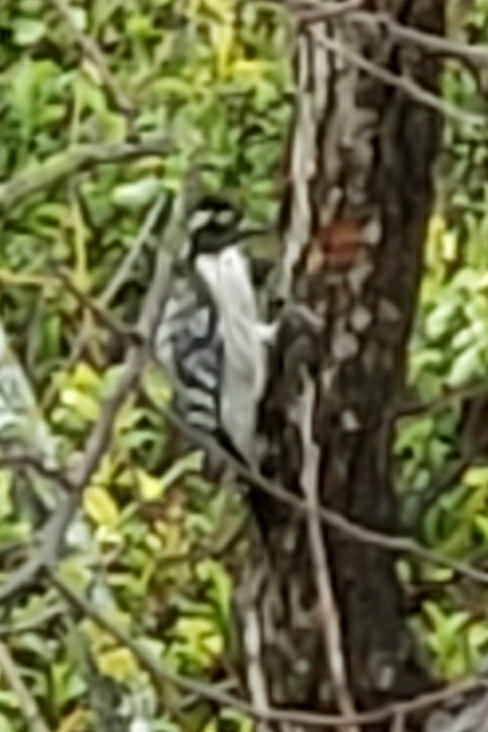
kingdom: Animalia
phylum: Chordata
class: Aves
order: Piciformes
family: Picidae
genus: Dryobates
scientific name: Dryobates nuttallii
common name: Nuttall's woodpecker
